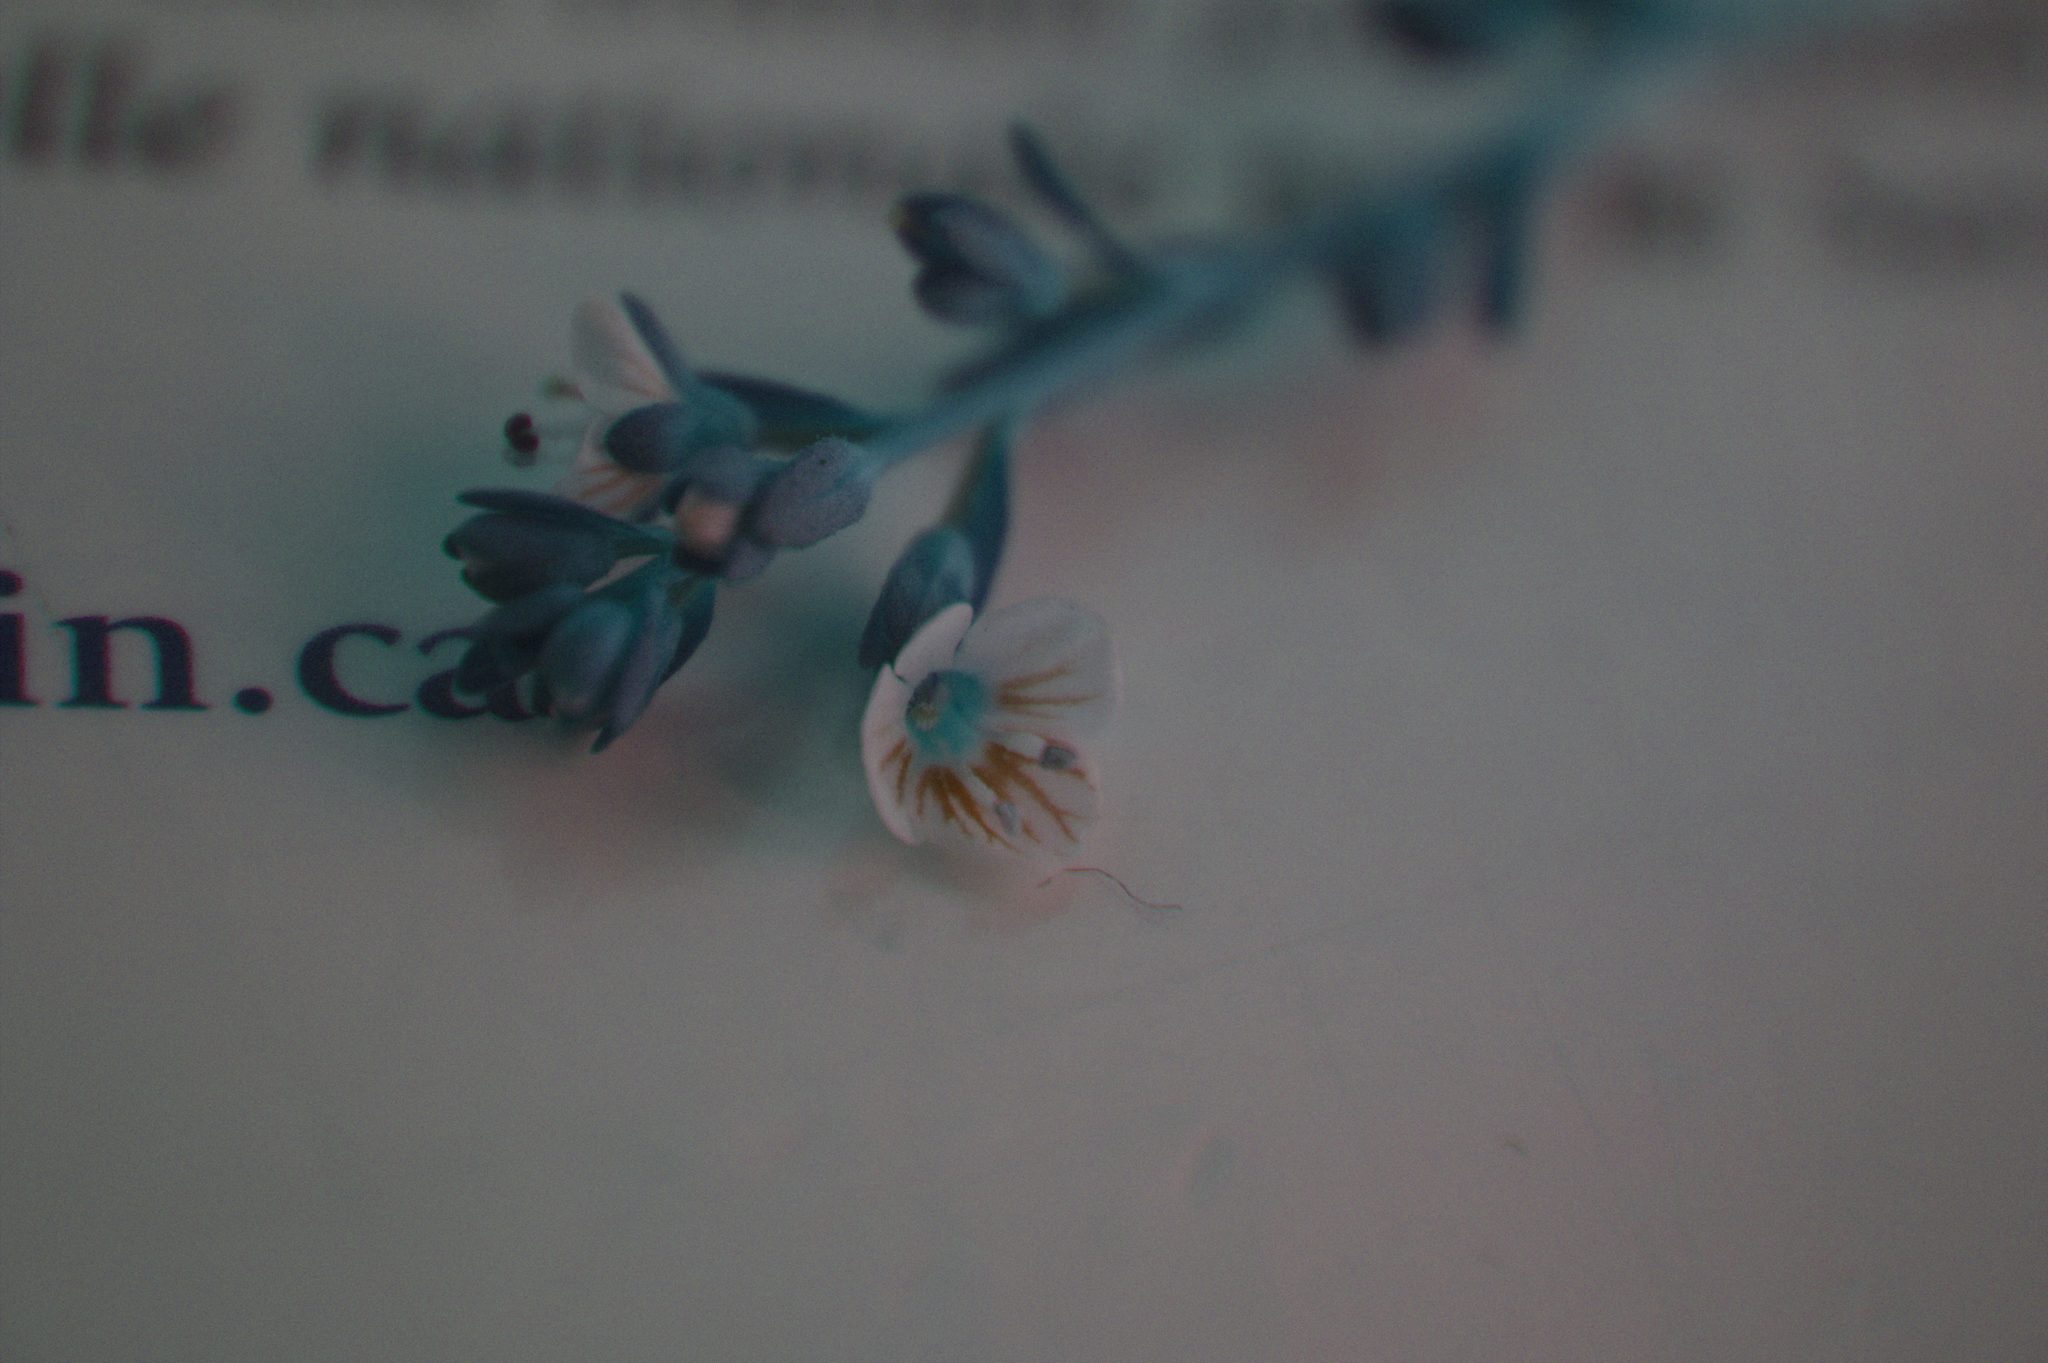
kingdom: Plantae
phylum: Tracheophyta
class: Magnoliopsida
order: Lamiales
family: Plantaginaceae
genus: Veronica
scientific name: Veronica serpyllifolia
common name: Thyme-leaved speedwell
